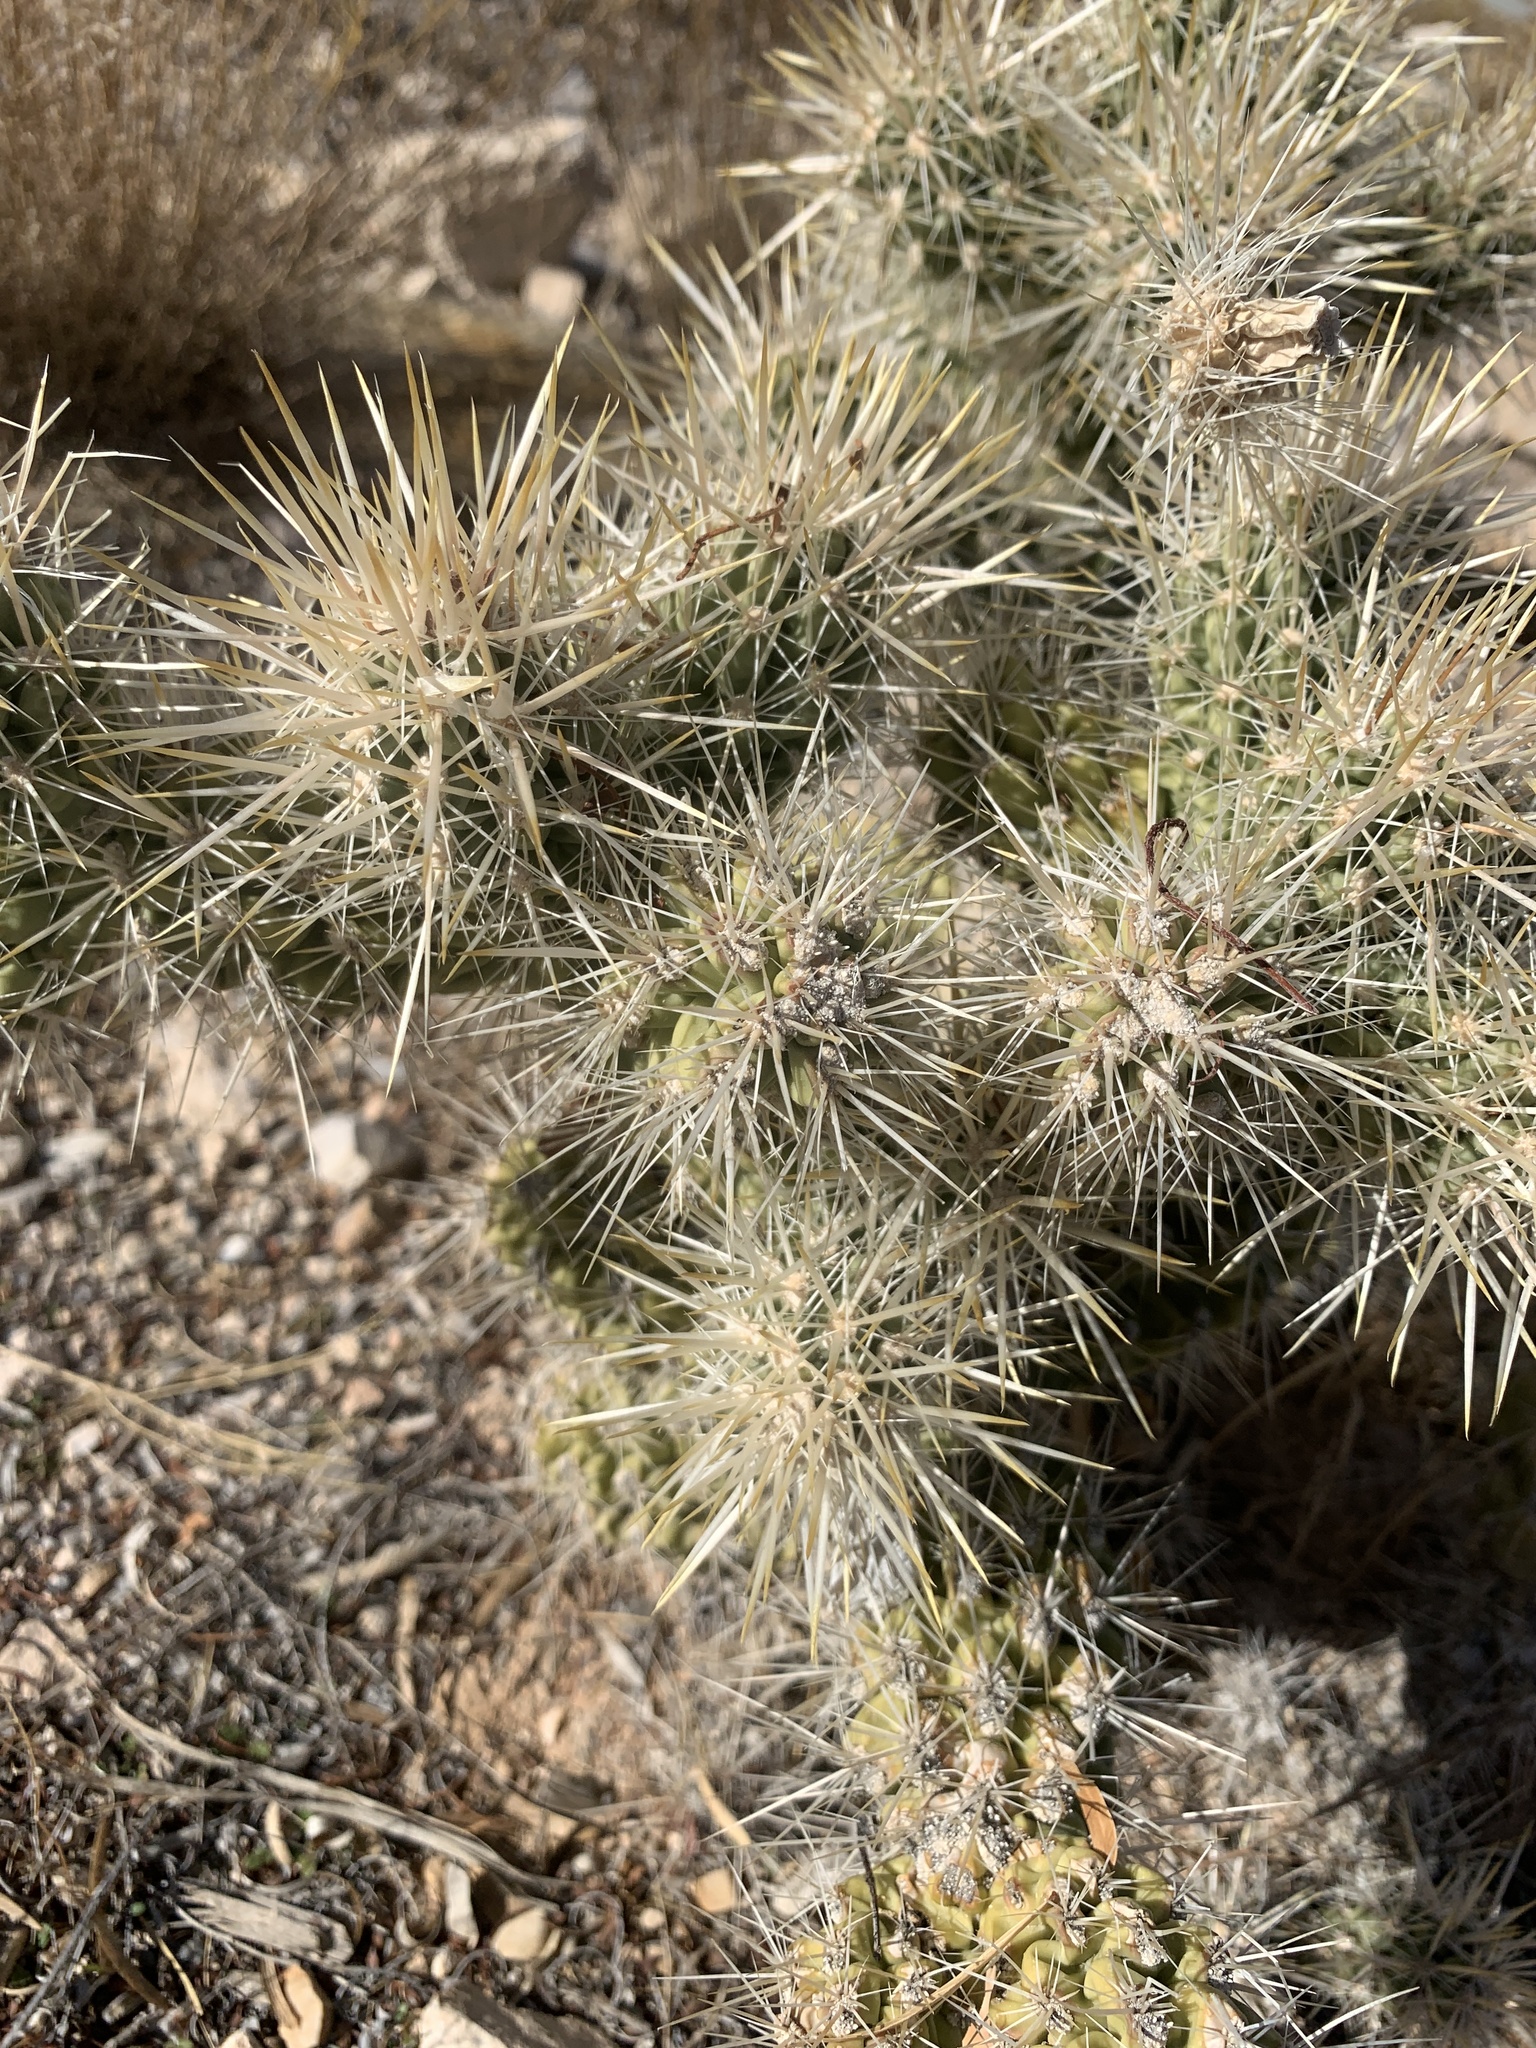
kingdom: Plantae
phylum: Tracheophyta
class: Magnoliopsida
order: Caryophyllales
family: Cactaceae
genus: Cylindropuntia
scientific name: Cylindropuntia echinocarpa
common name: Ground cholla
